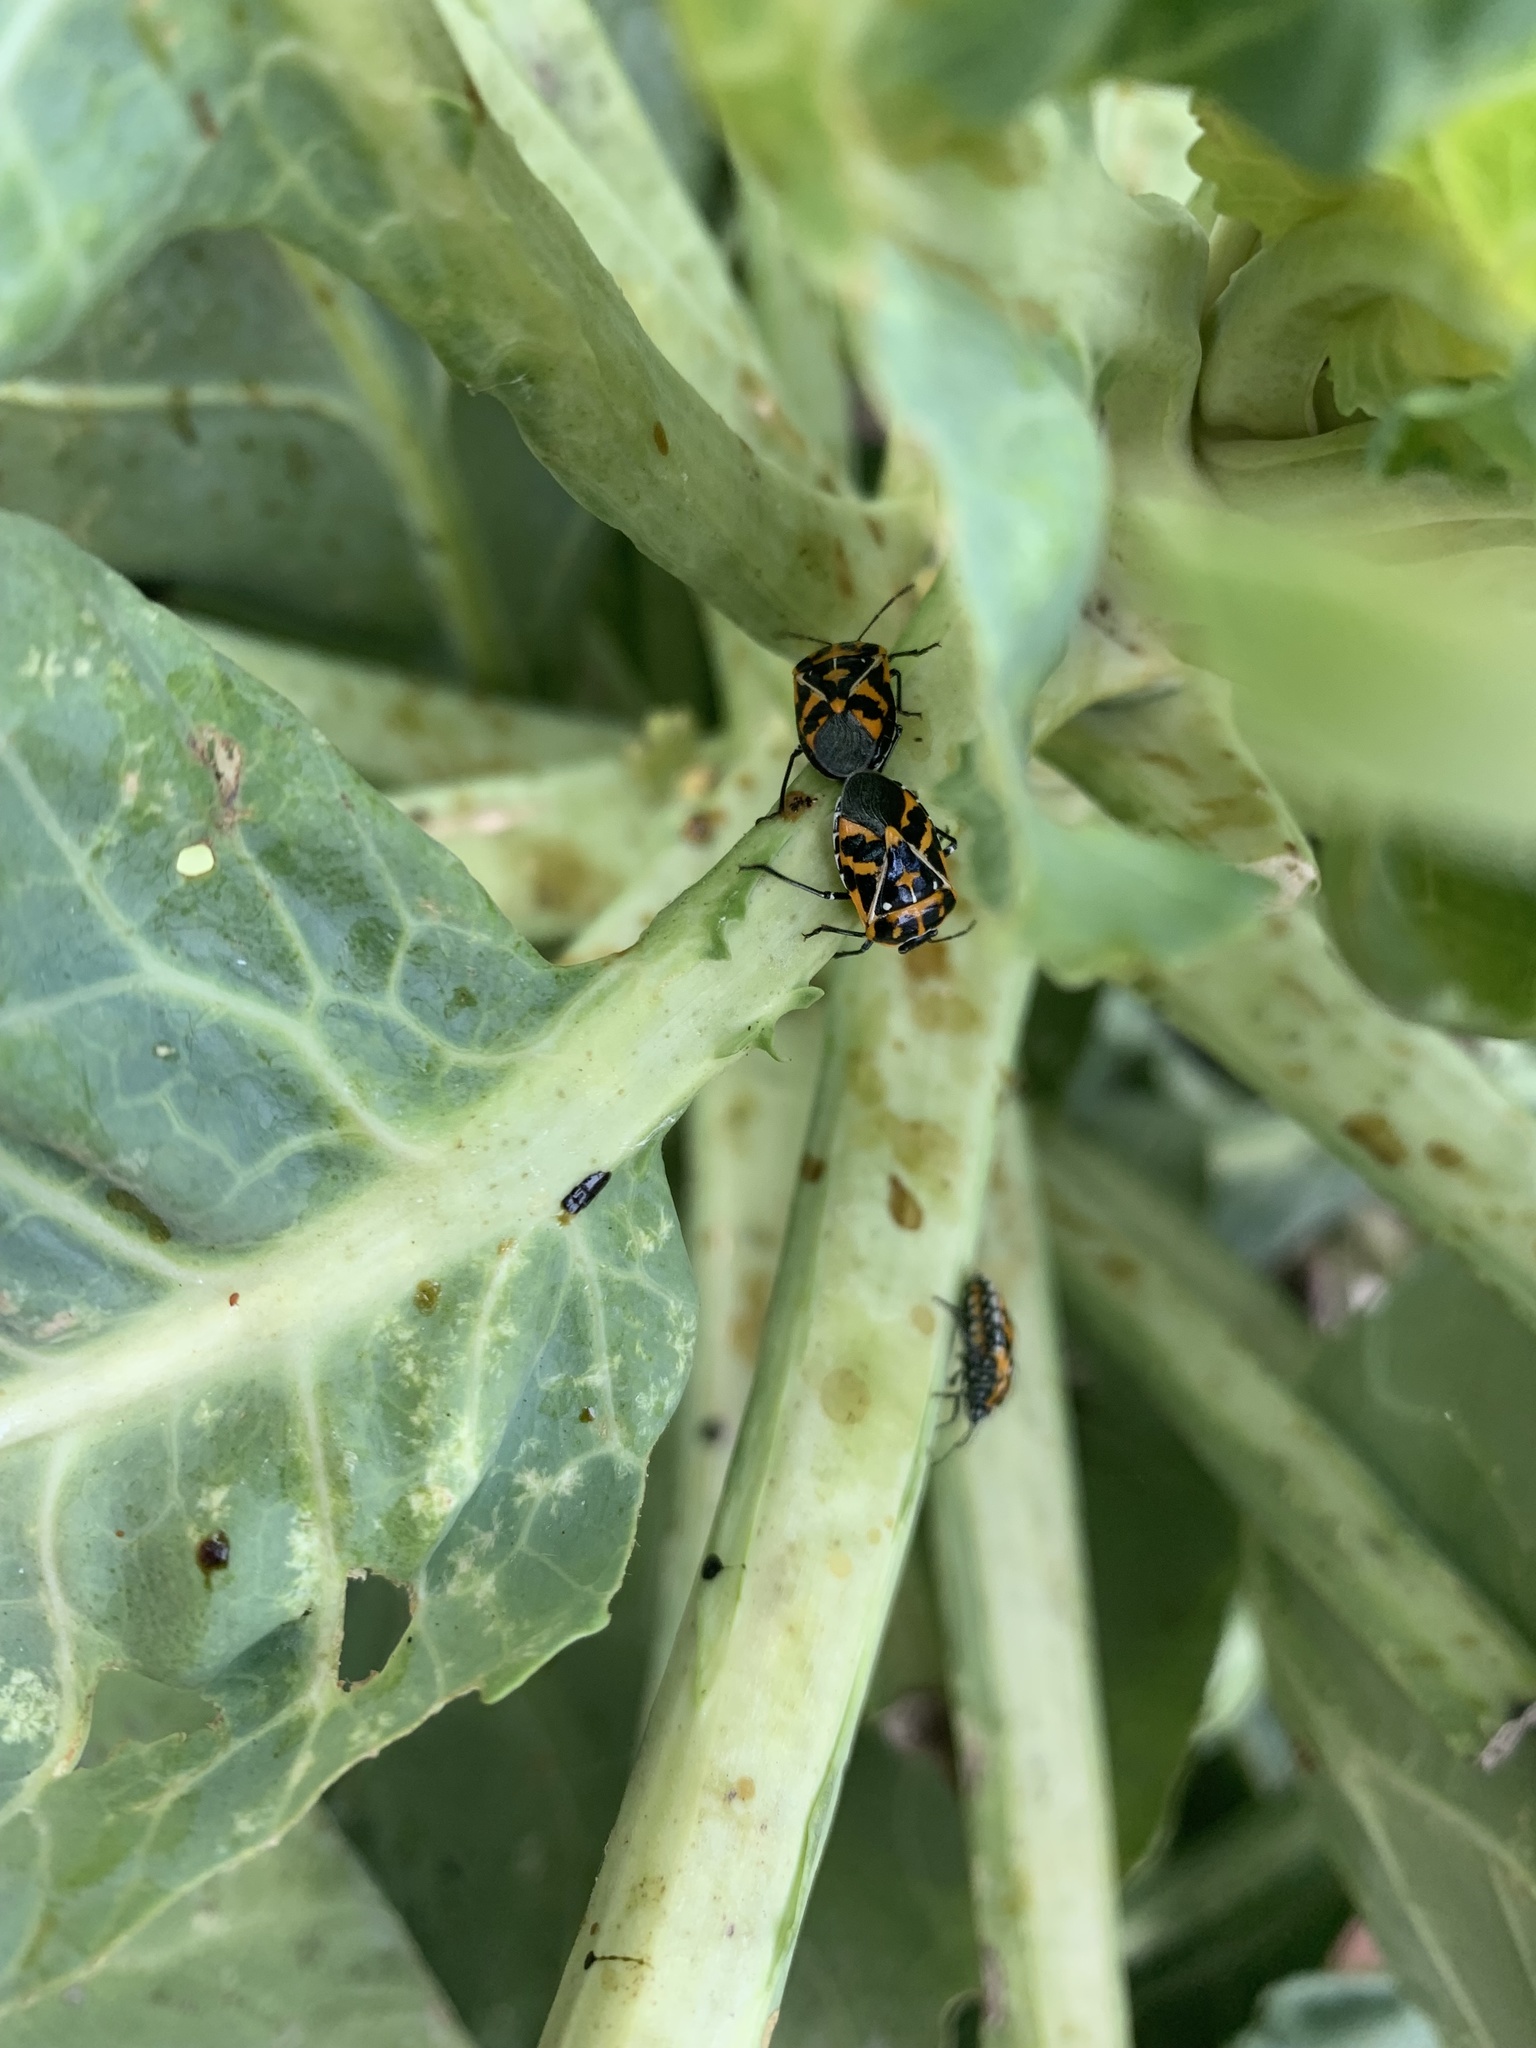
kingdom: Animalia
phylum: Arthropoda
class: Insecta
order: Hemiptera
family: Pentatomidae
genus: Murgantia
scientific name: Murgantia histrionica
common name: Harlequin bug
